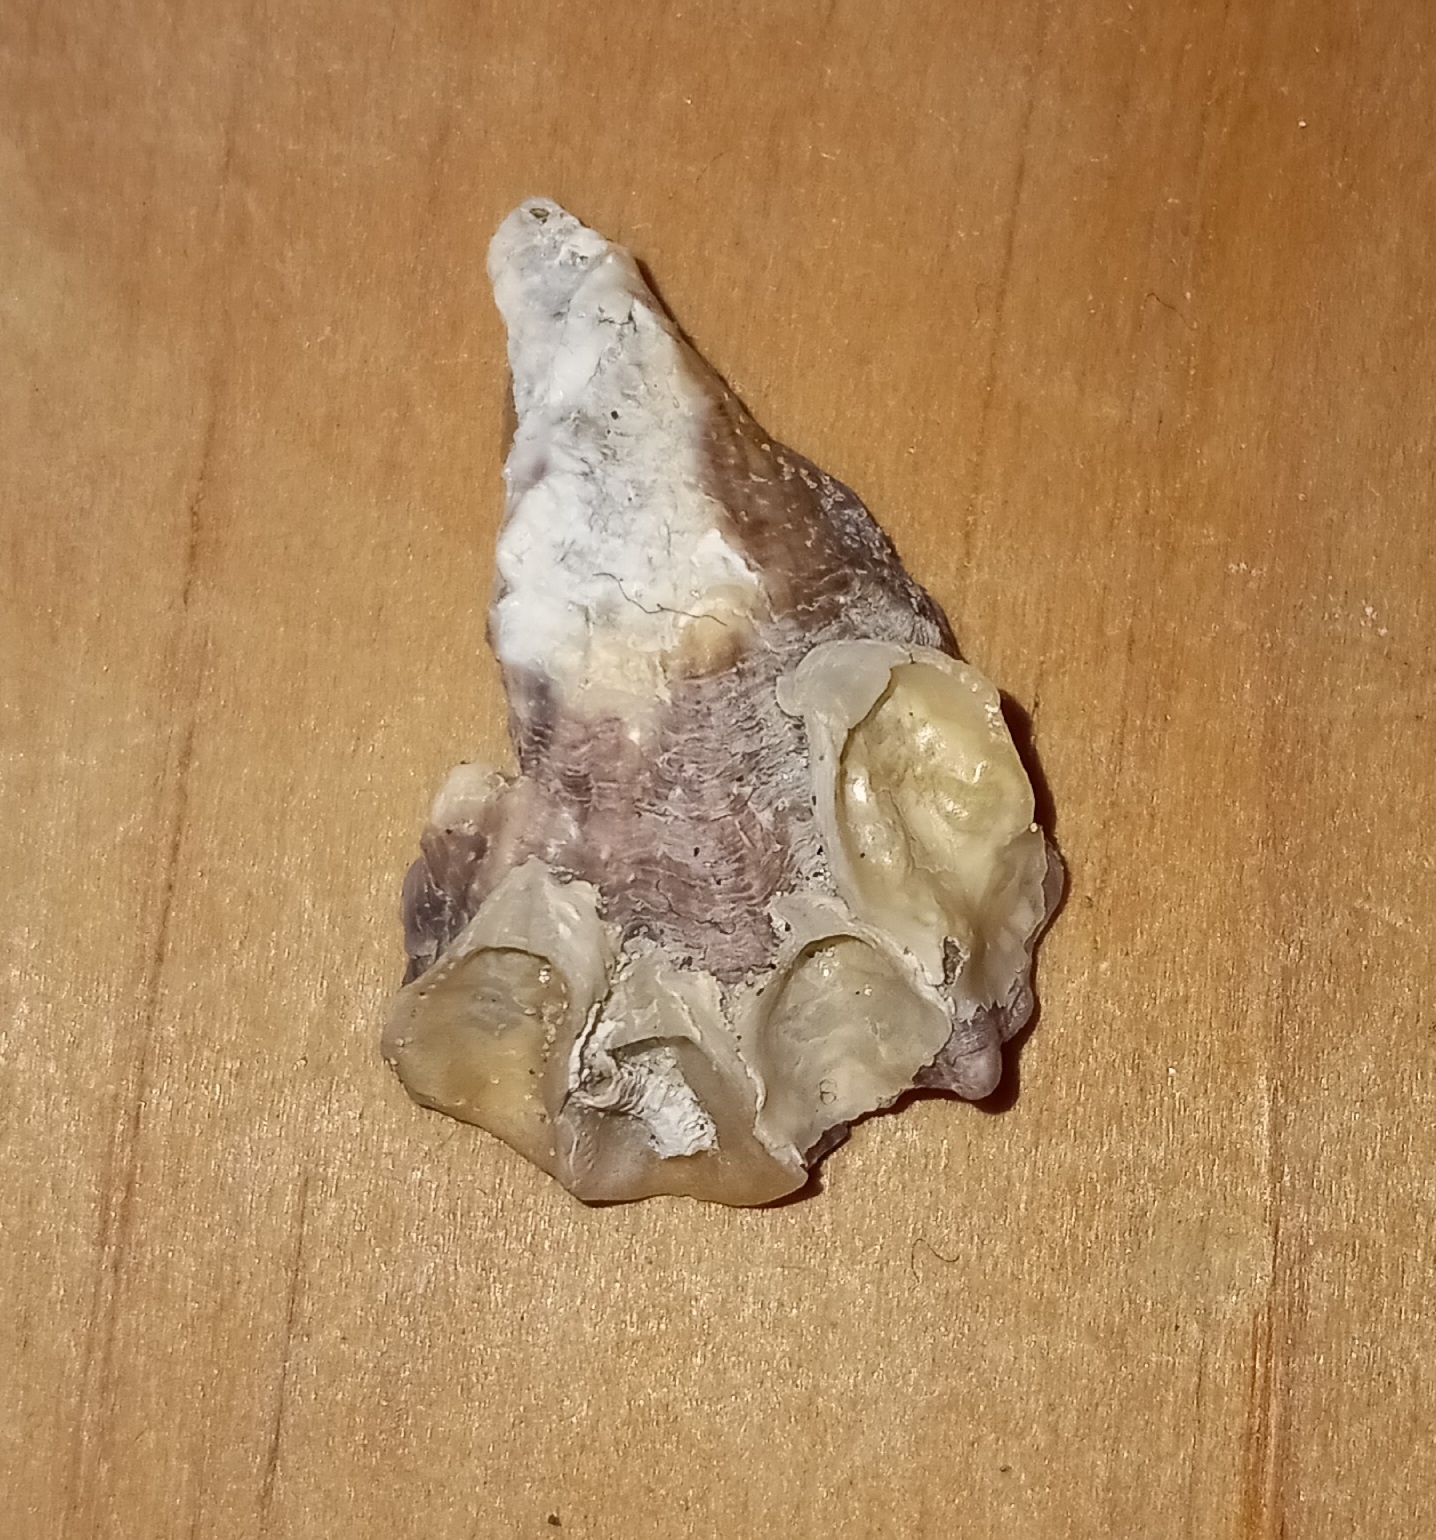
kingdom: Animalia
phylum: Mollusca
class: Bivalvia
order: Ostreida
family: Ostreidae
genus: Crassostrea
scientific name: Crassostrea virginica
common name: American oyster
